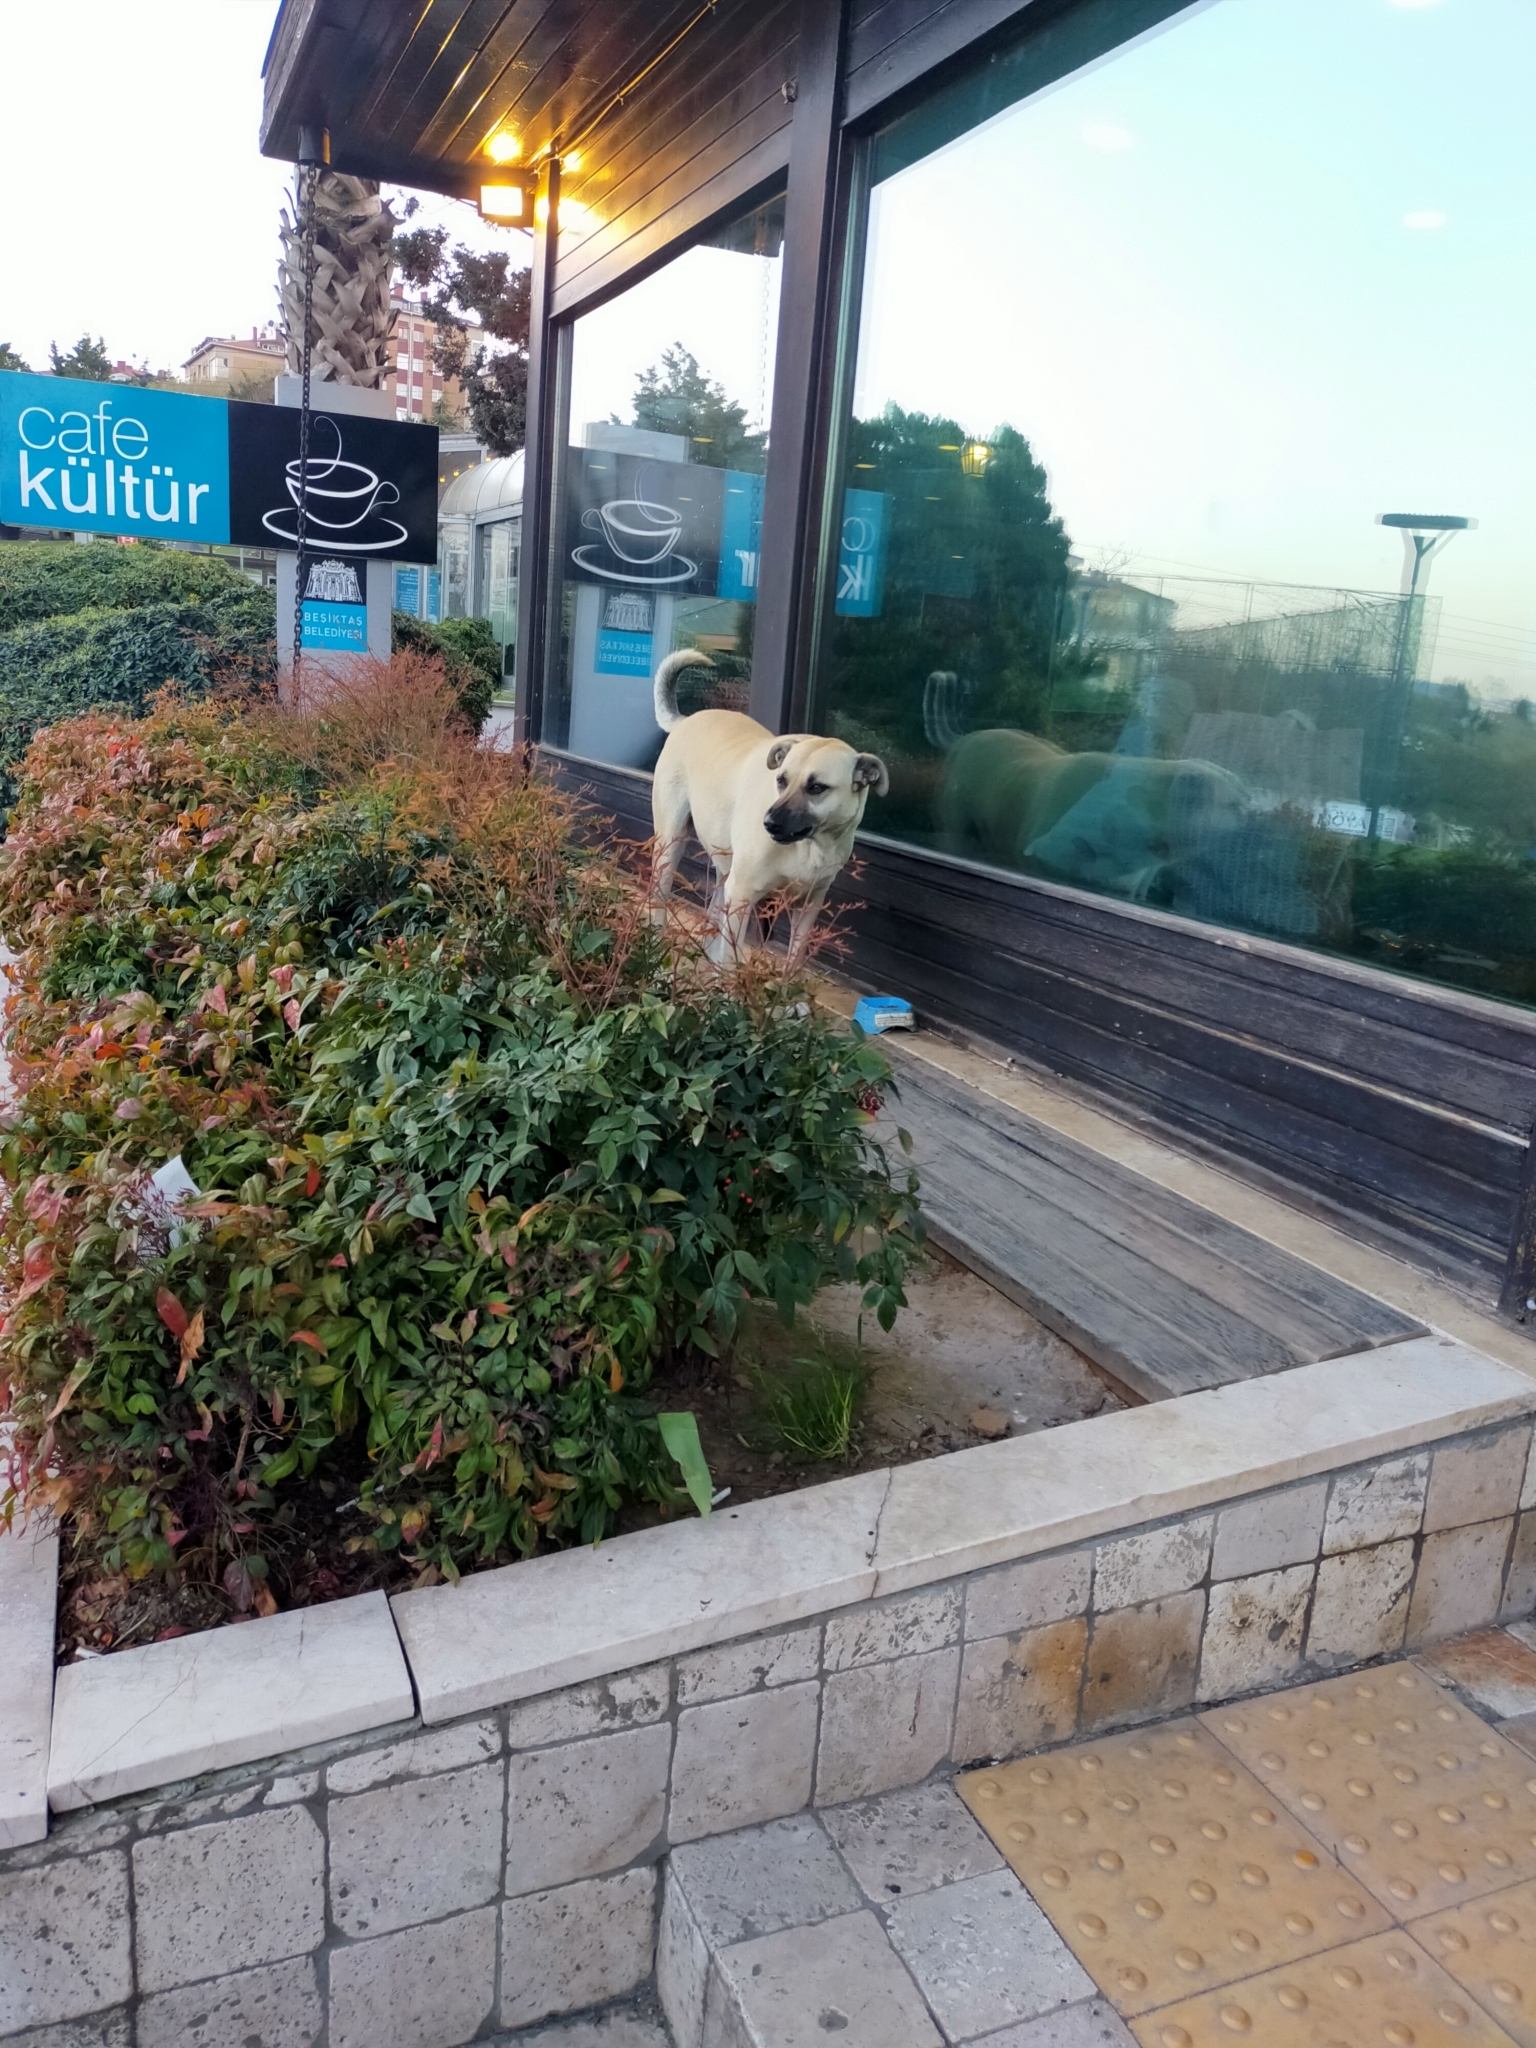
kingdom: Animalia
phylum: Chordata
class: Mammalia
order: Carnivora
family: Canidae
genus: Canis
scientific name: Canis lupus
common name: Gray wolf
